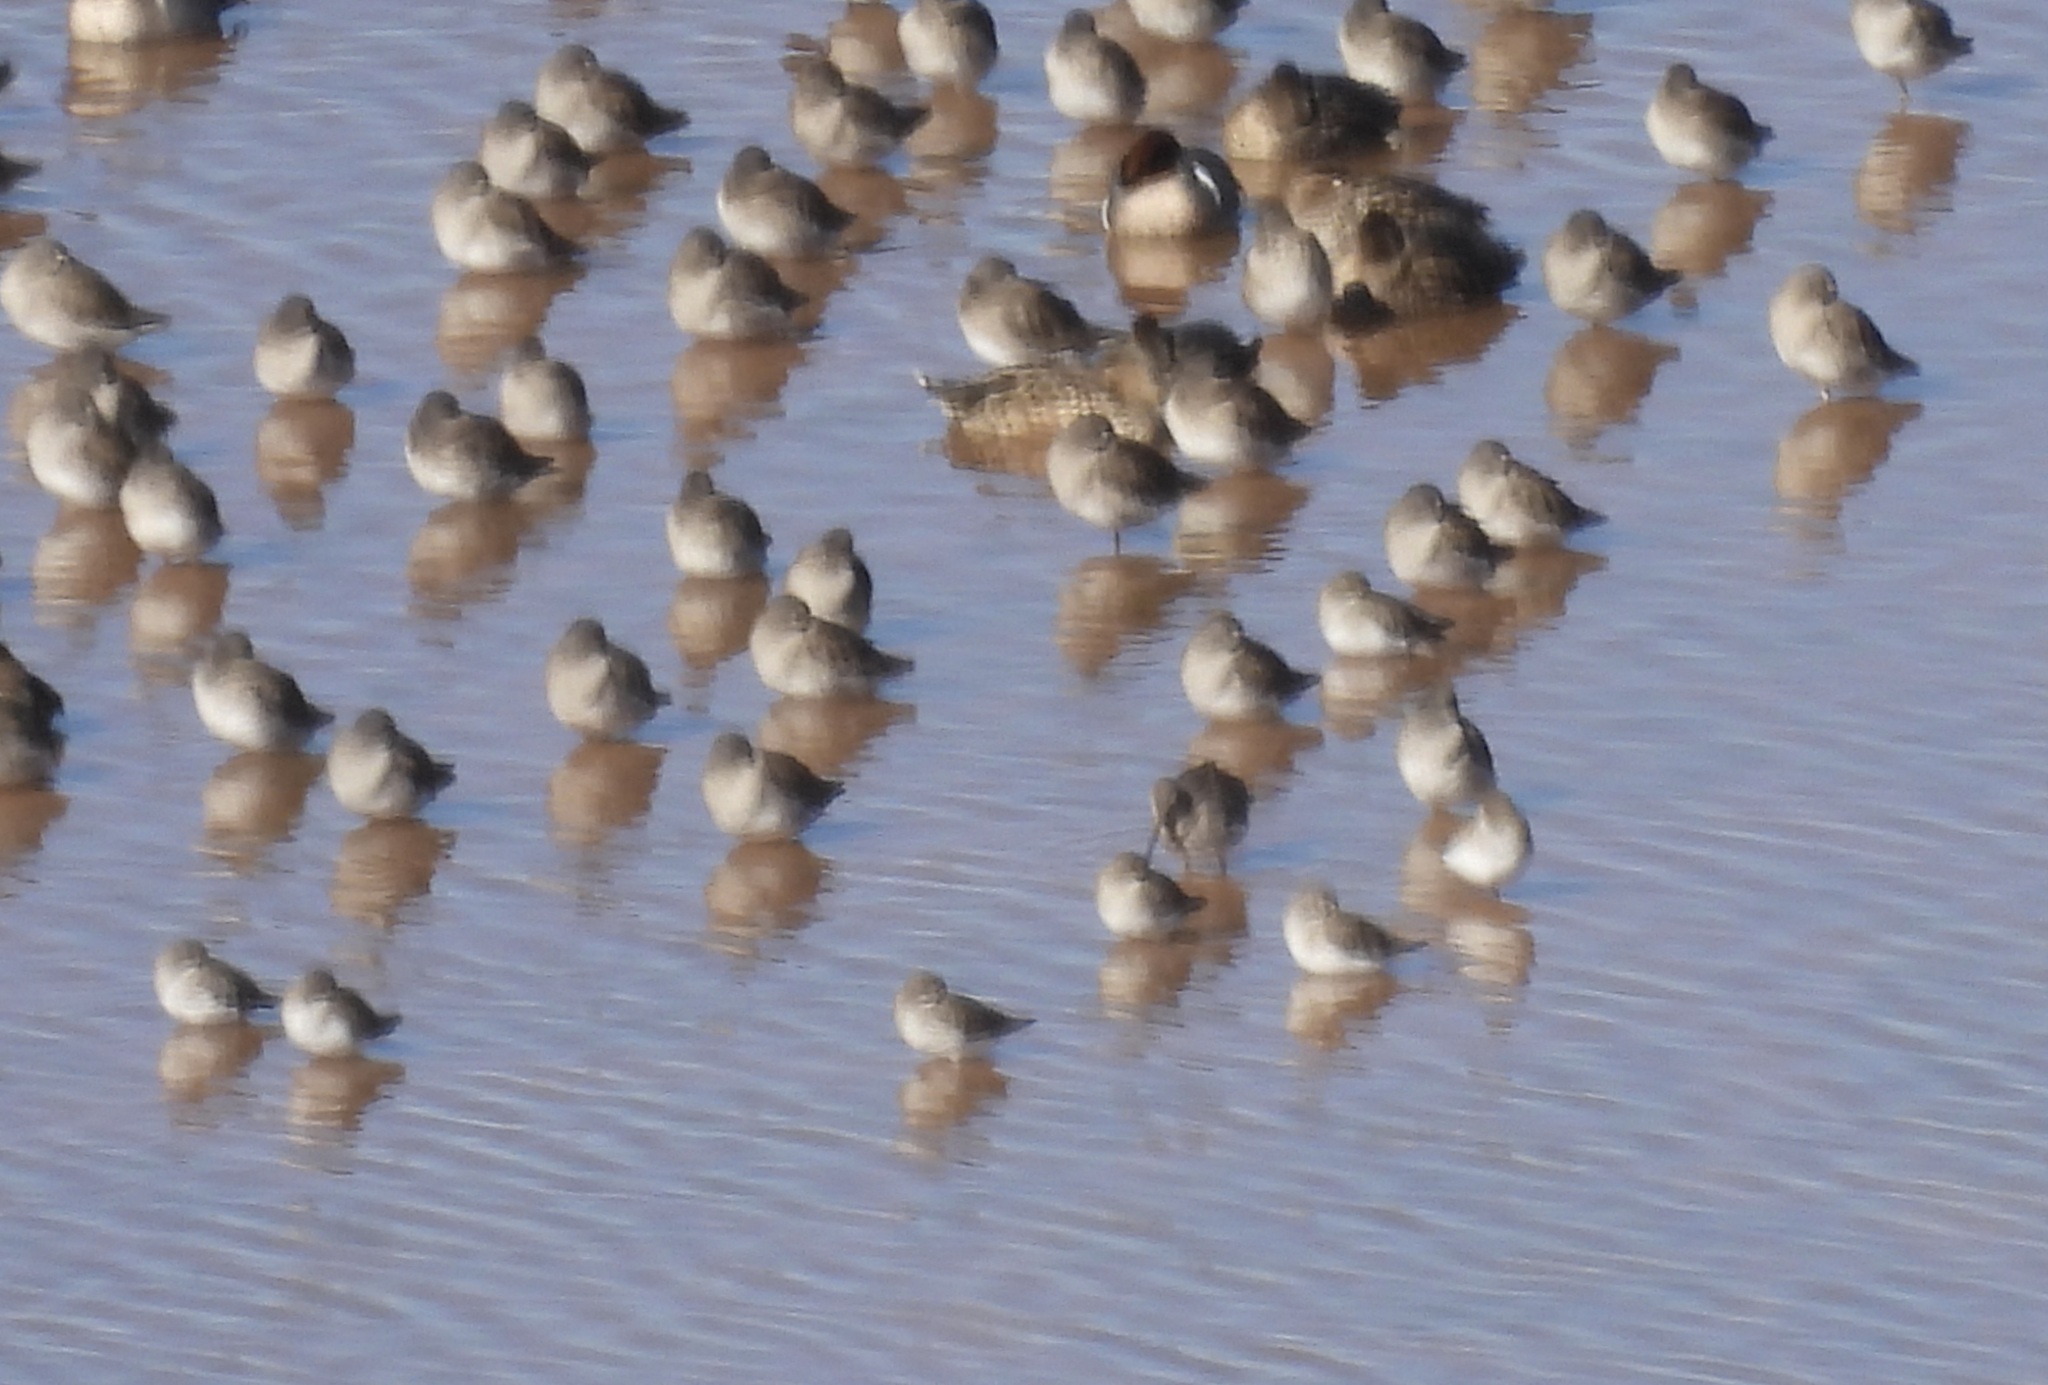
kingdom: Animalia
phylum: Chordata
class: Aves
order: Charadriiformes
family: Scolopacidae
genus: Calidris
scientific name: Calidris alpina
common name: Dunlin
